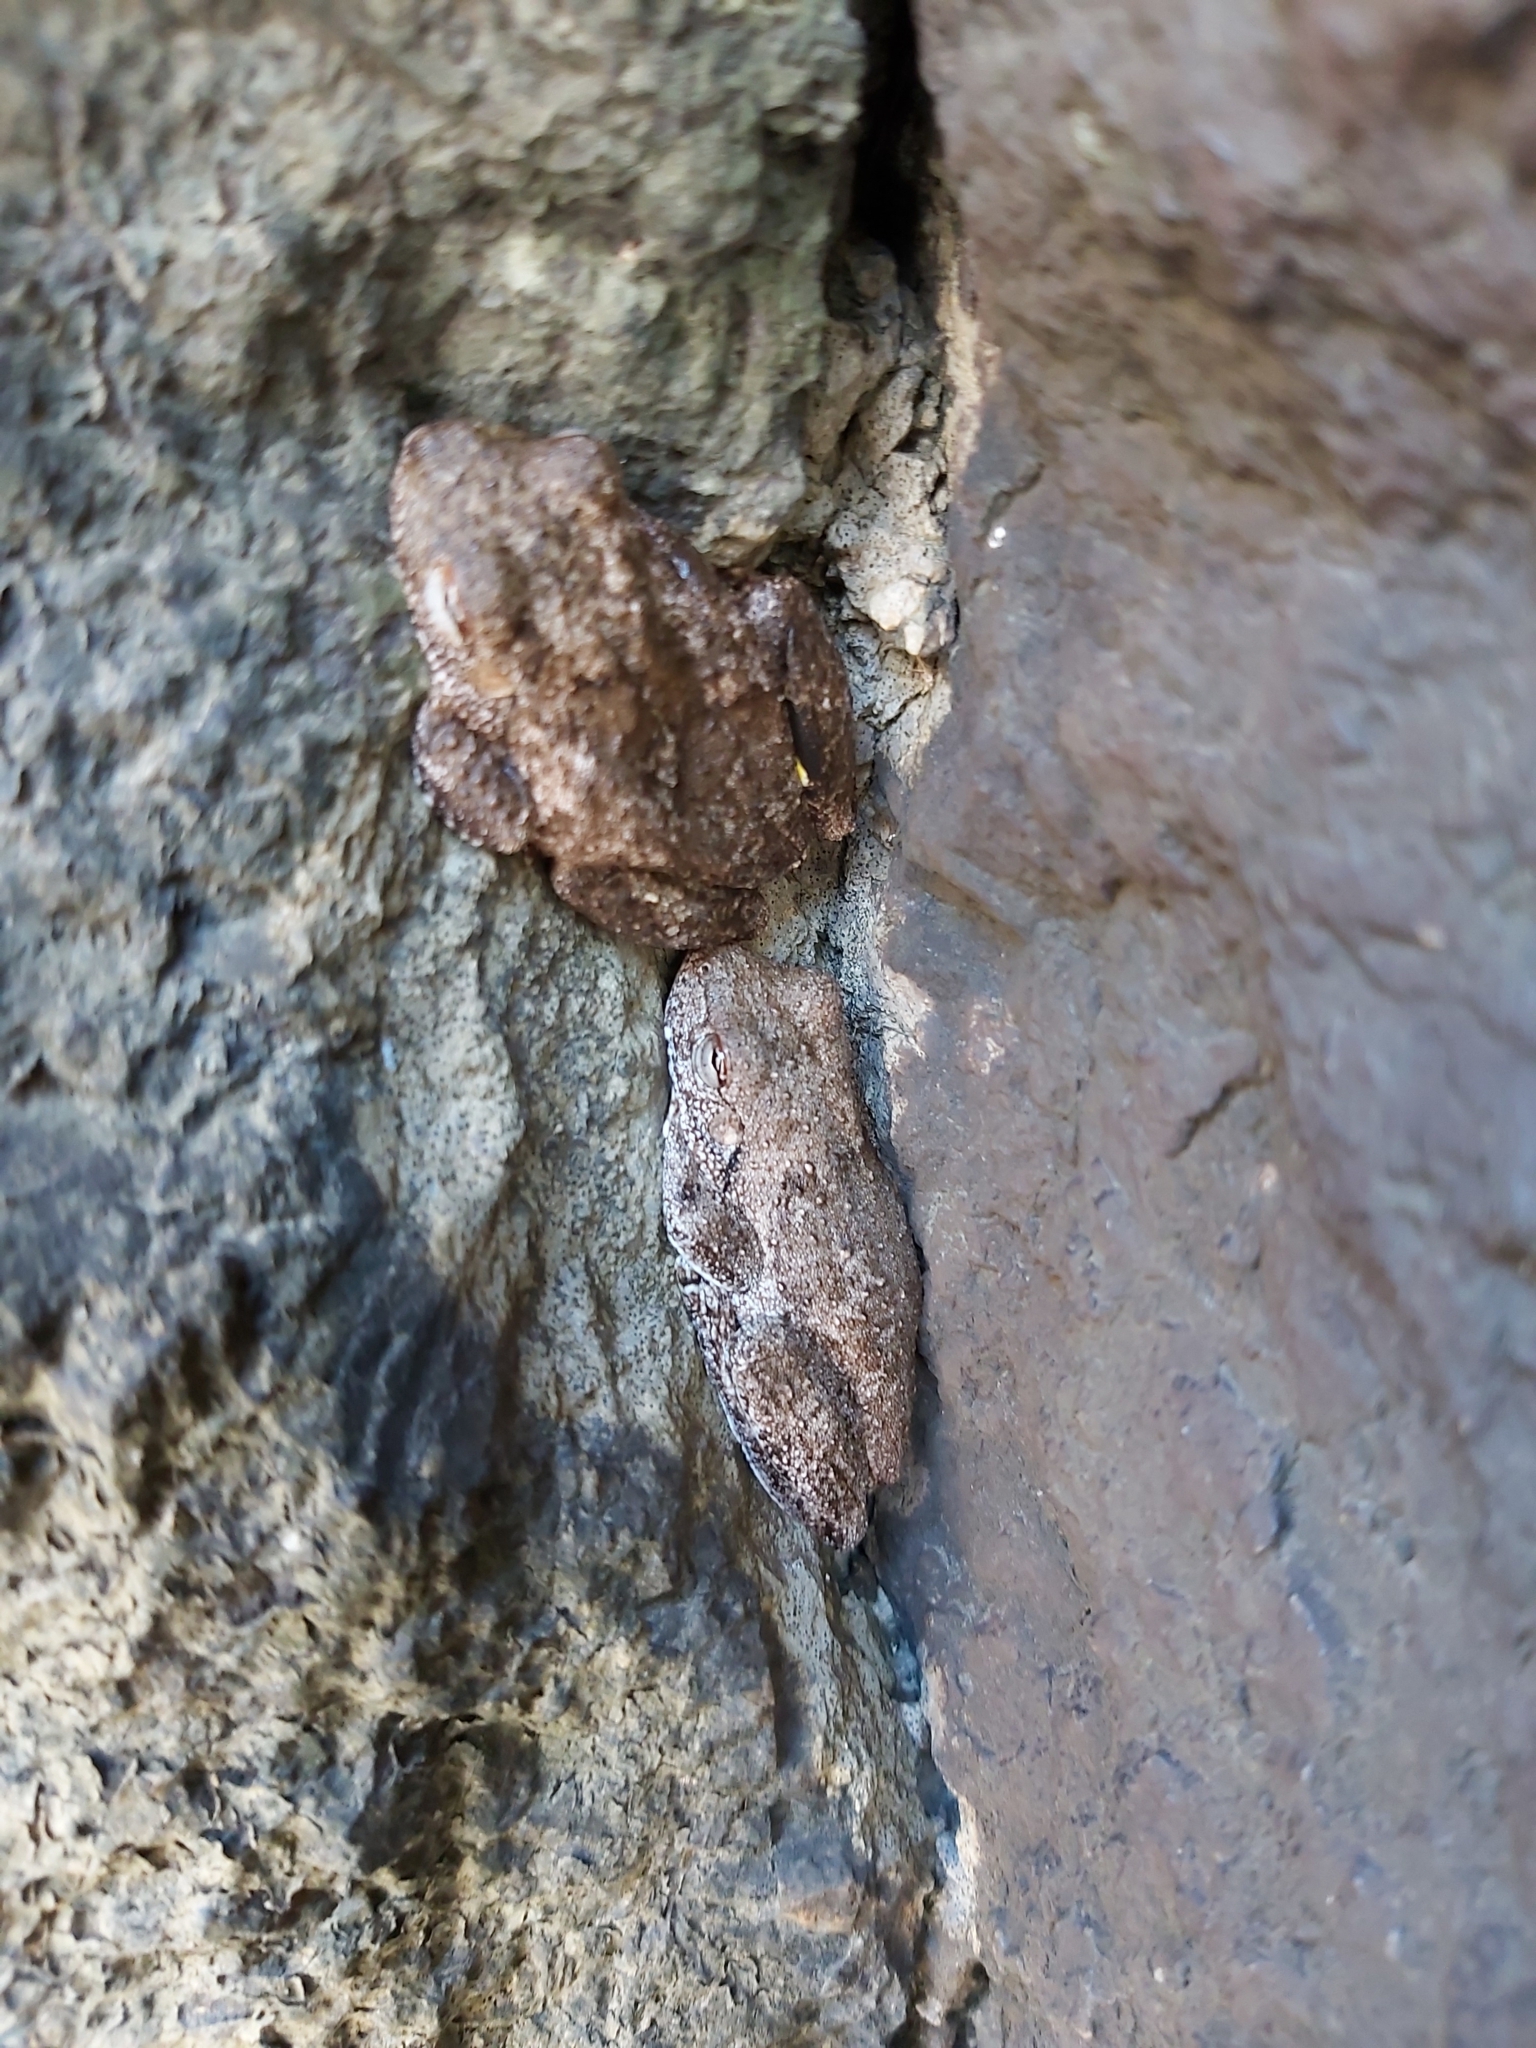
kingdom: Animalia
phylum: Chordata
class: Amphibia
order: Anura
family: Pelodryadidae
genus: Litoria
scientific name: Litoria rothii
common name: Roth’s tree frog
